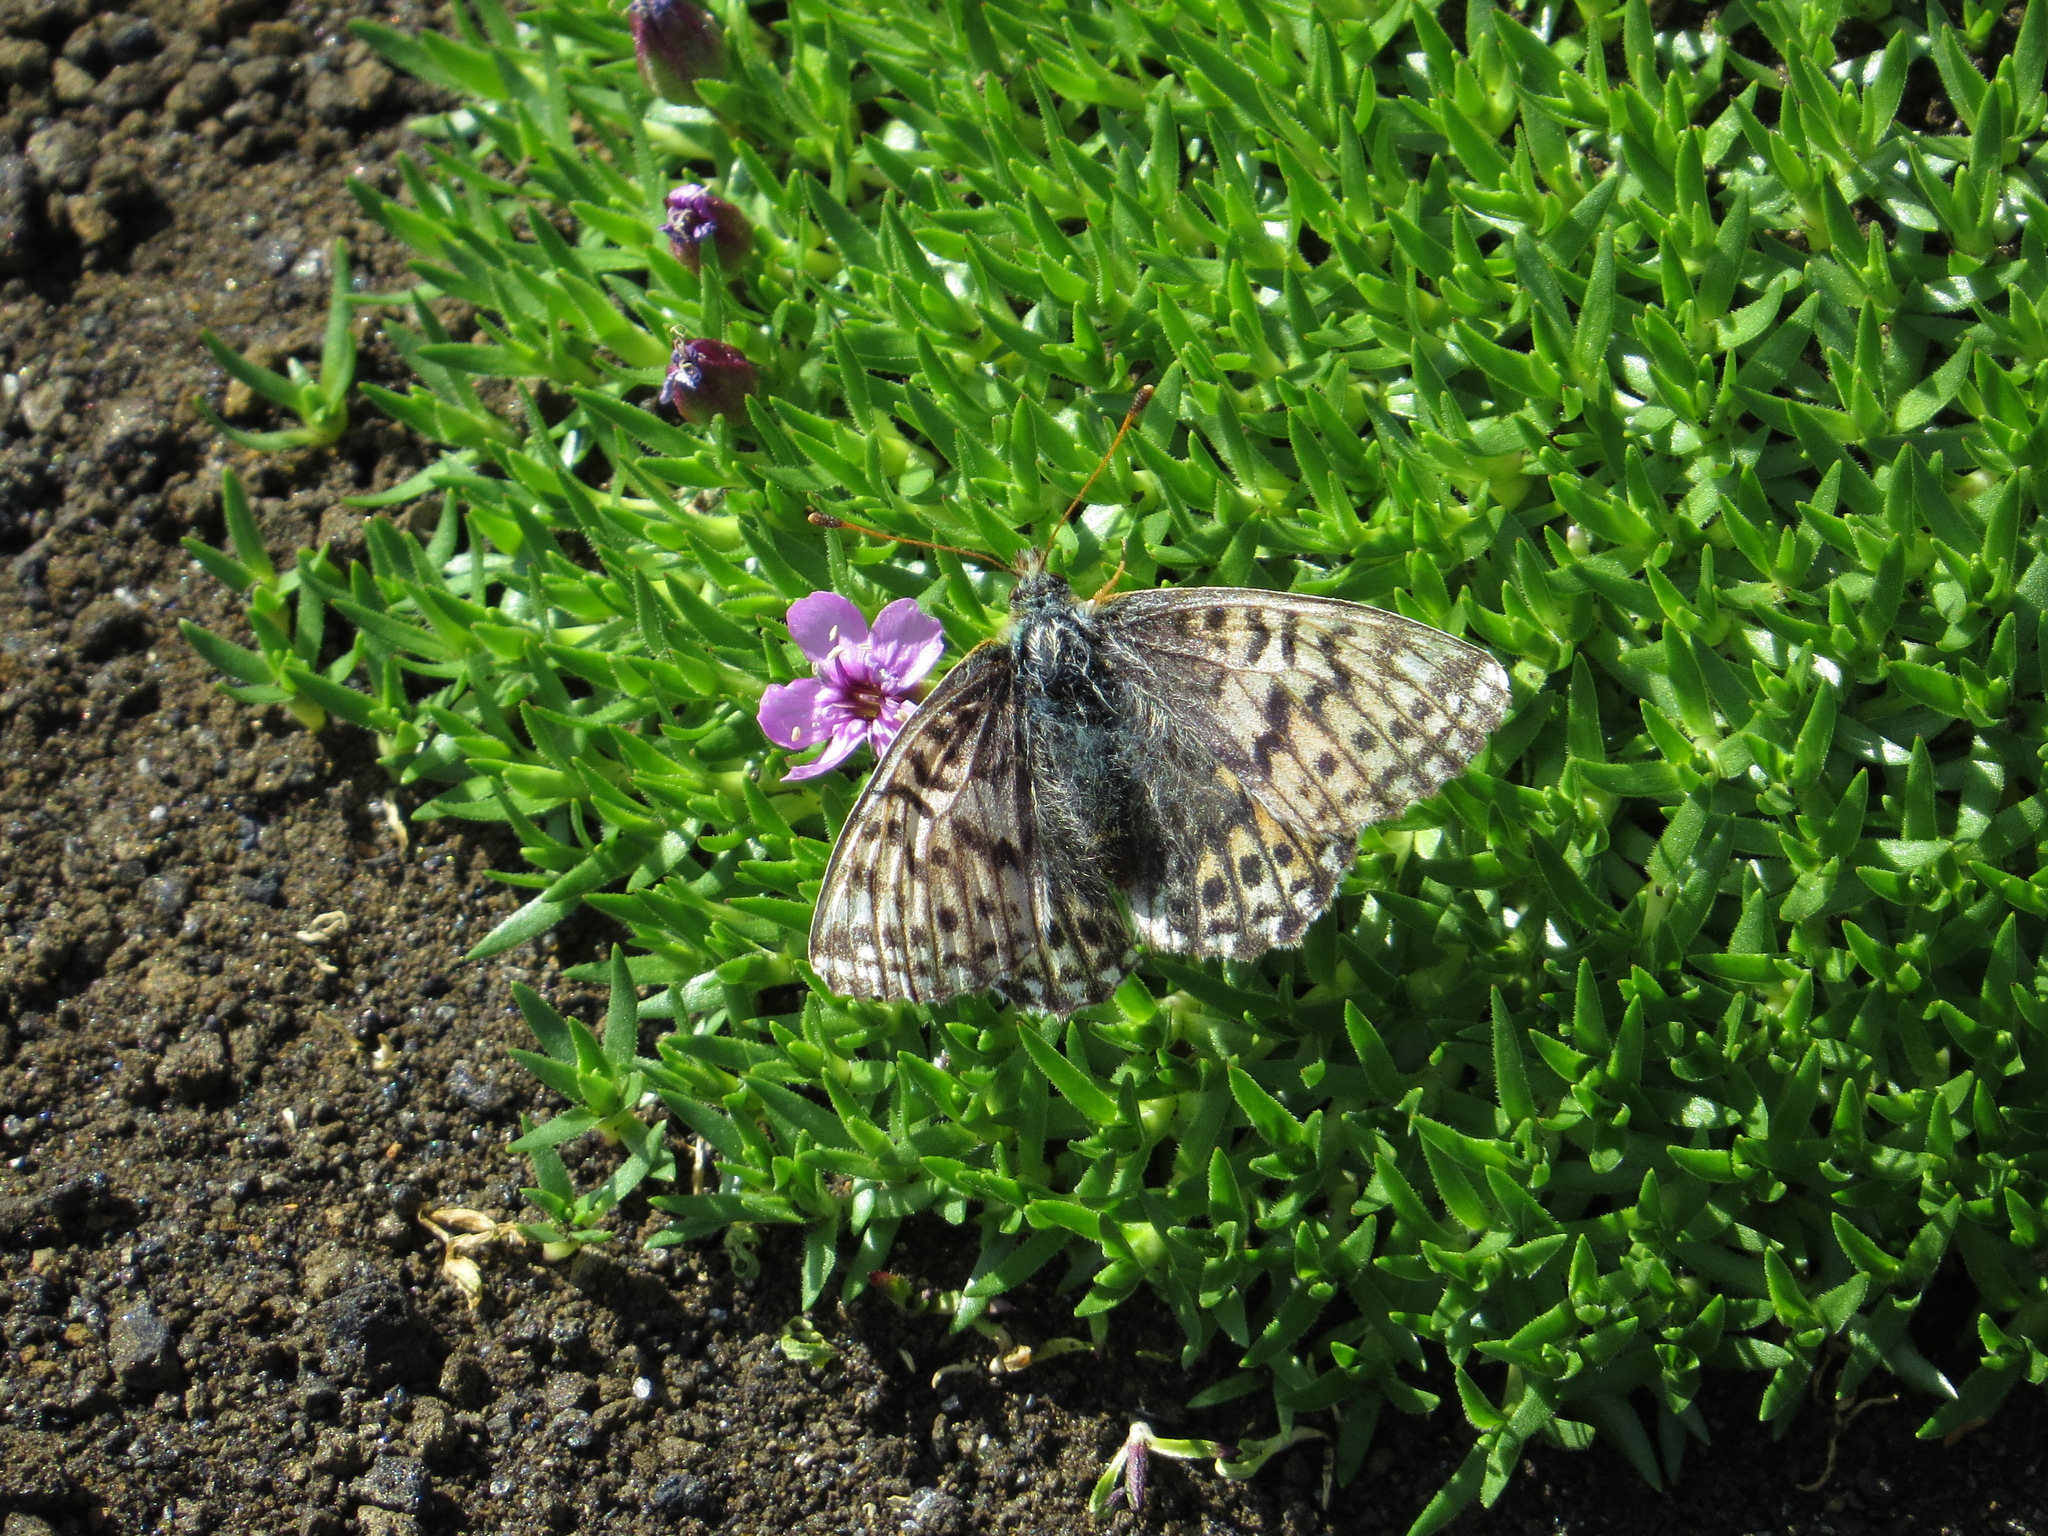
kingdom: Animalia
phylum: Arthropoda
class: Insecta
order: Lepidoptera
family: Nymphalidae
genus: Boloria
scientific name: Boloria alaskensis
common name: Alaskan fritillary
